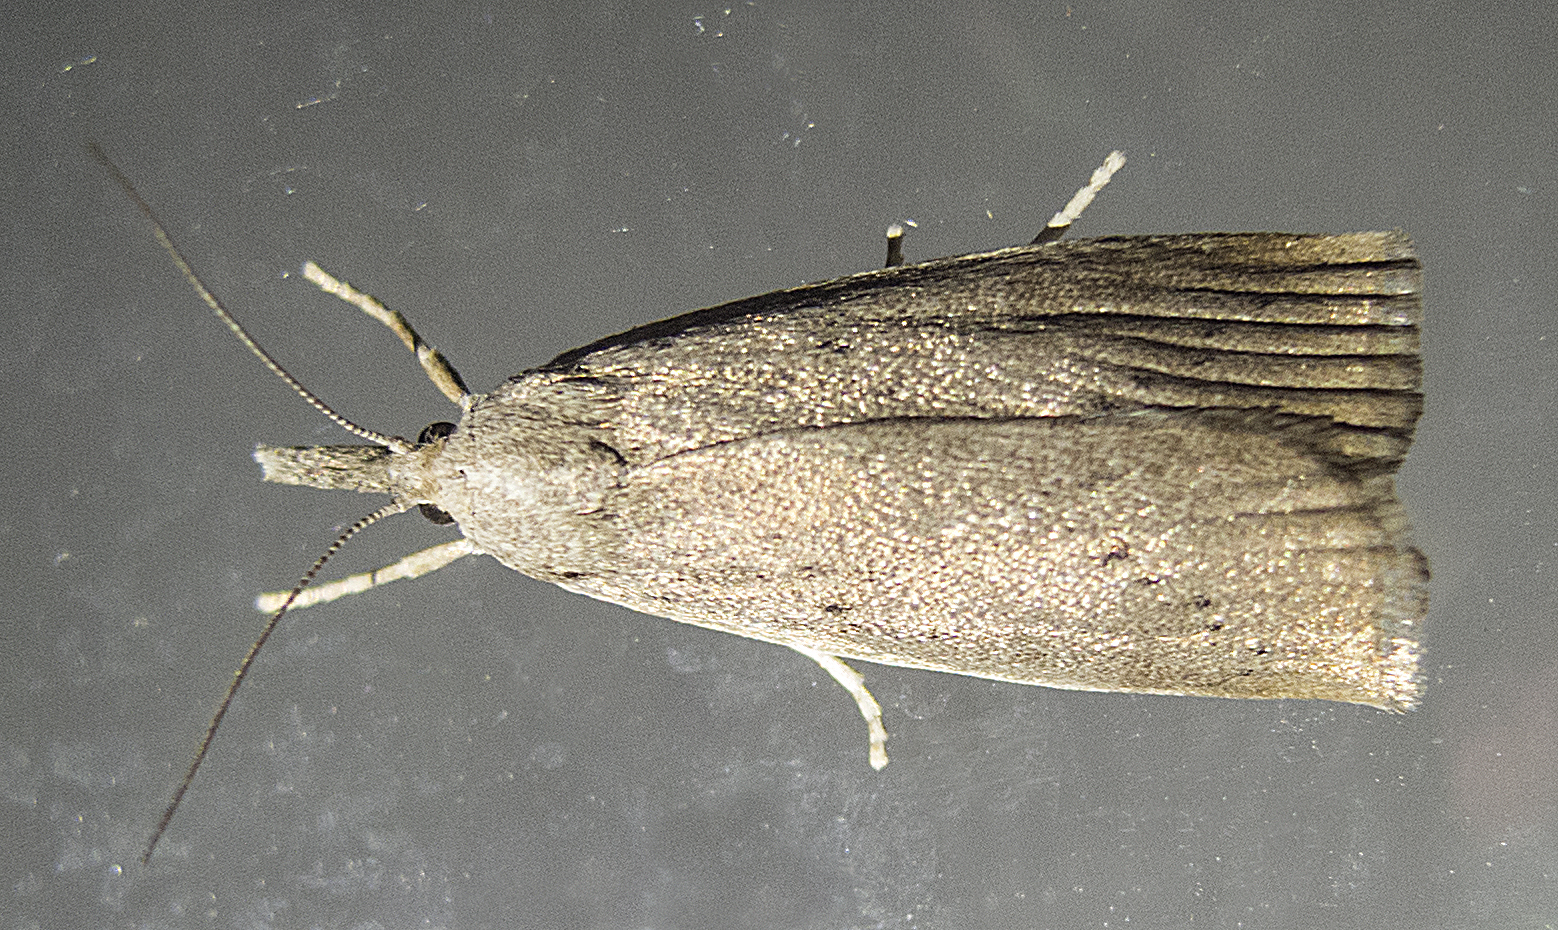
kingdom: Animalia
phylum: Arthropoda
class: Insecta
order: Lepidoptera
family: Crambidae
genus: Calamotropha
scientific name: Calamotropha paludella
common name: Bulrush veneer
